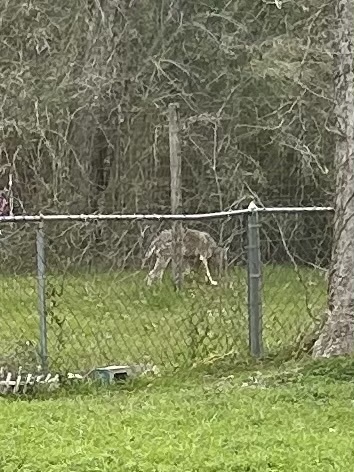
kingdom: Animalia
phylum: Chordata
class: Mammalia
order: Carnivora
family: Canidae
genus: Canis
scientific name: Canis latrans
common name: Coyote
